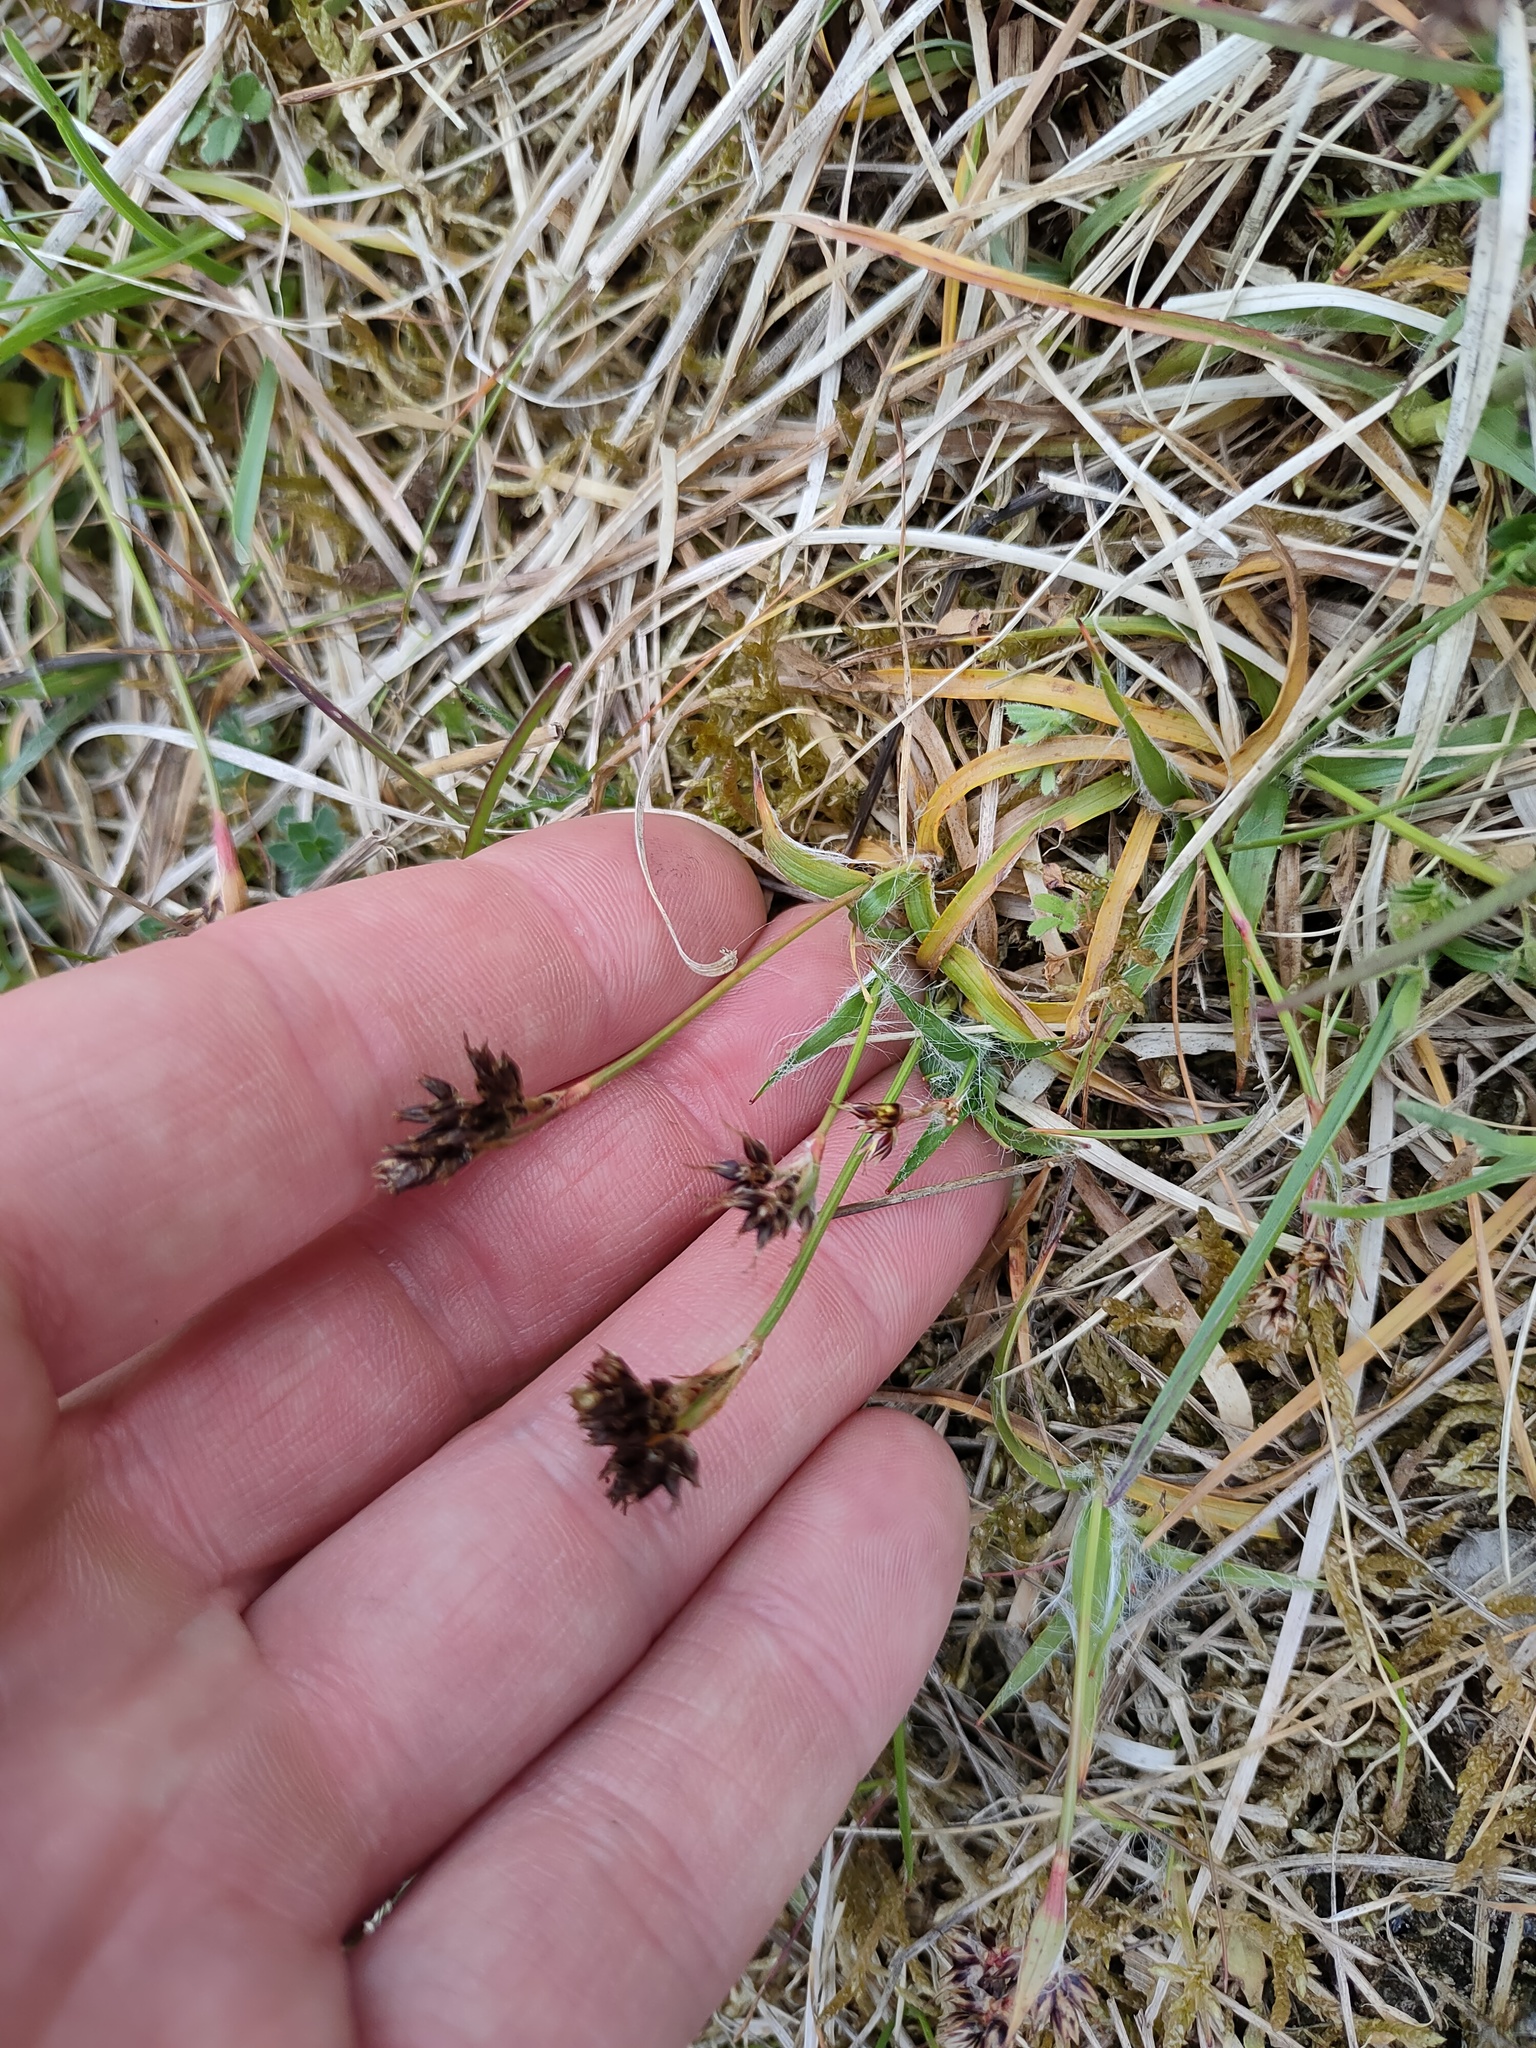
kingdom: Plantae
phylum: Tracheophyta
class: Liliopsida
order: Poales
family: Juncaceae
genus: Luzula
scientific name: Luzula campestris
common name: Field wood-rush
